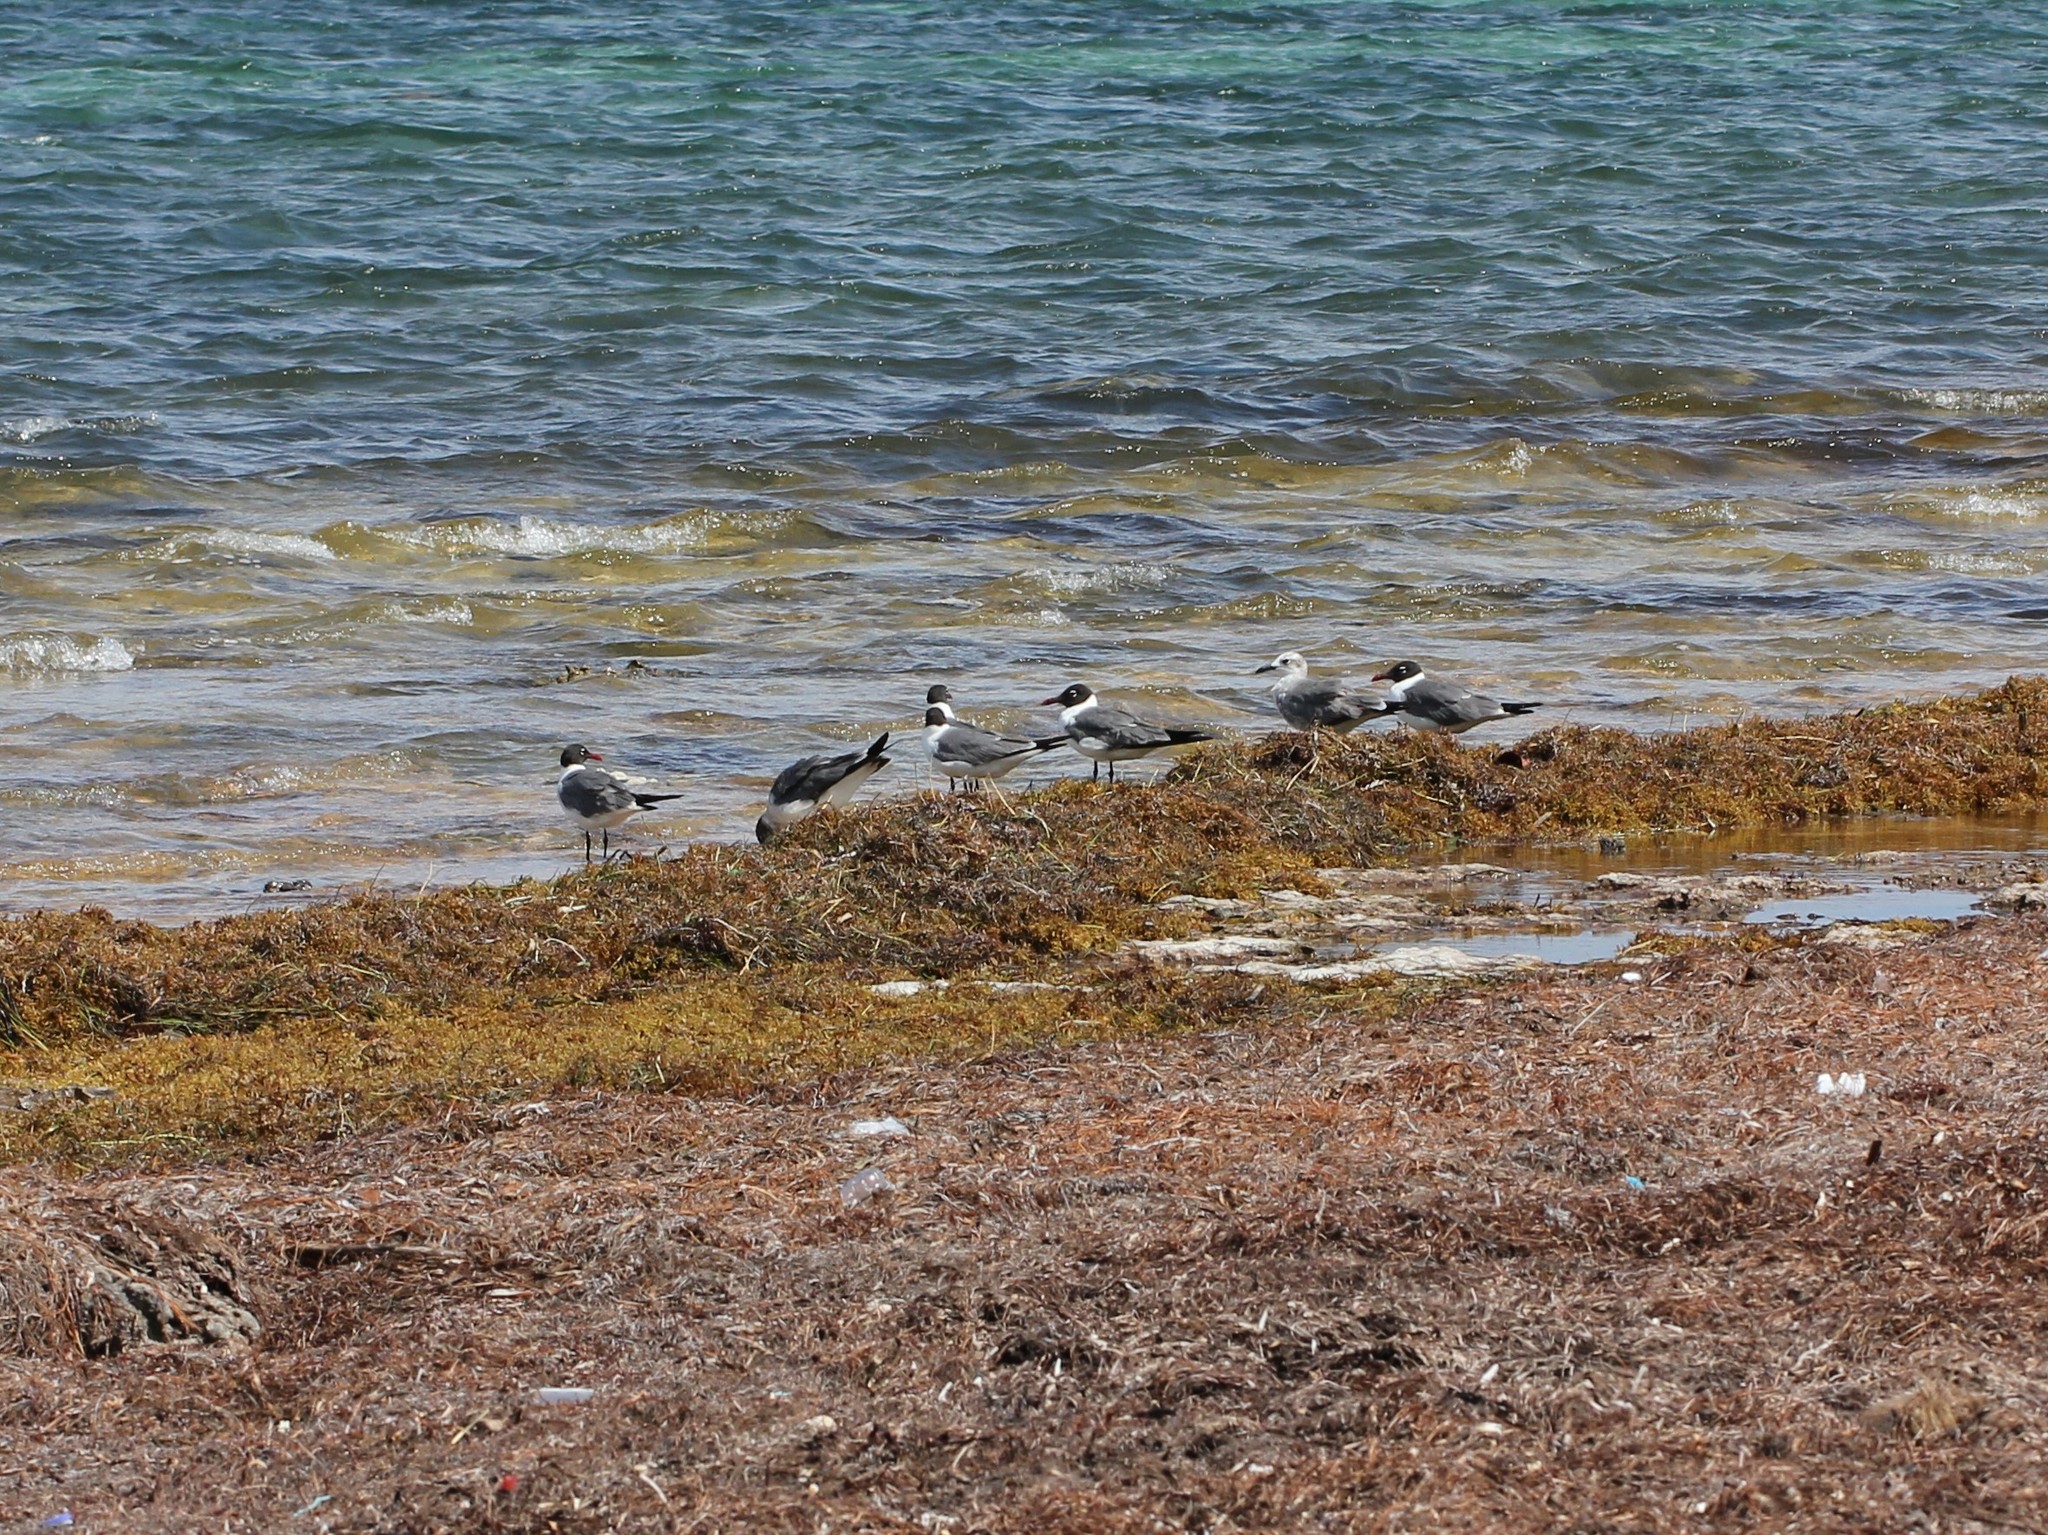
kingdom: Animalia
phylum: Chordata
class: Aves
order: Charadriiformes
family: Laridae
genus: Leucophaeus
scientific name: Leucophaeus atricilla
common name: Laughing gull
